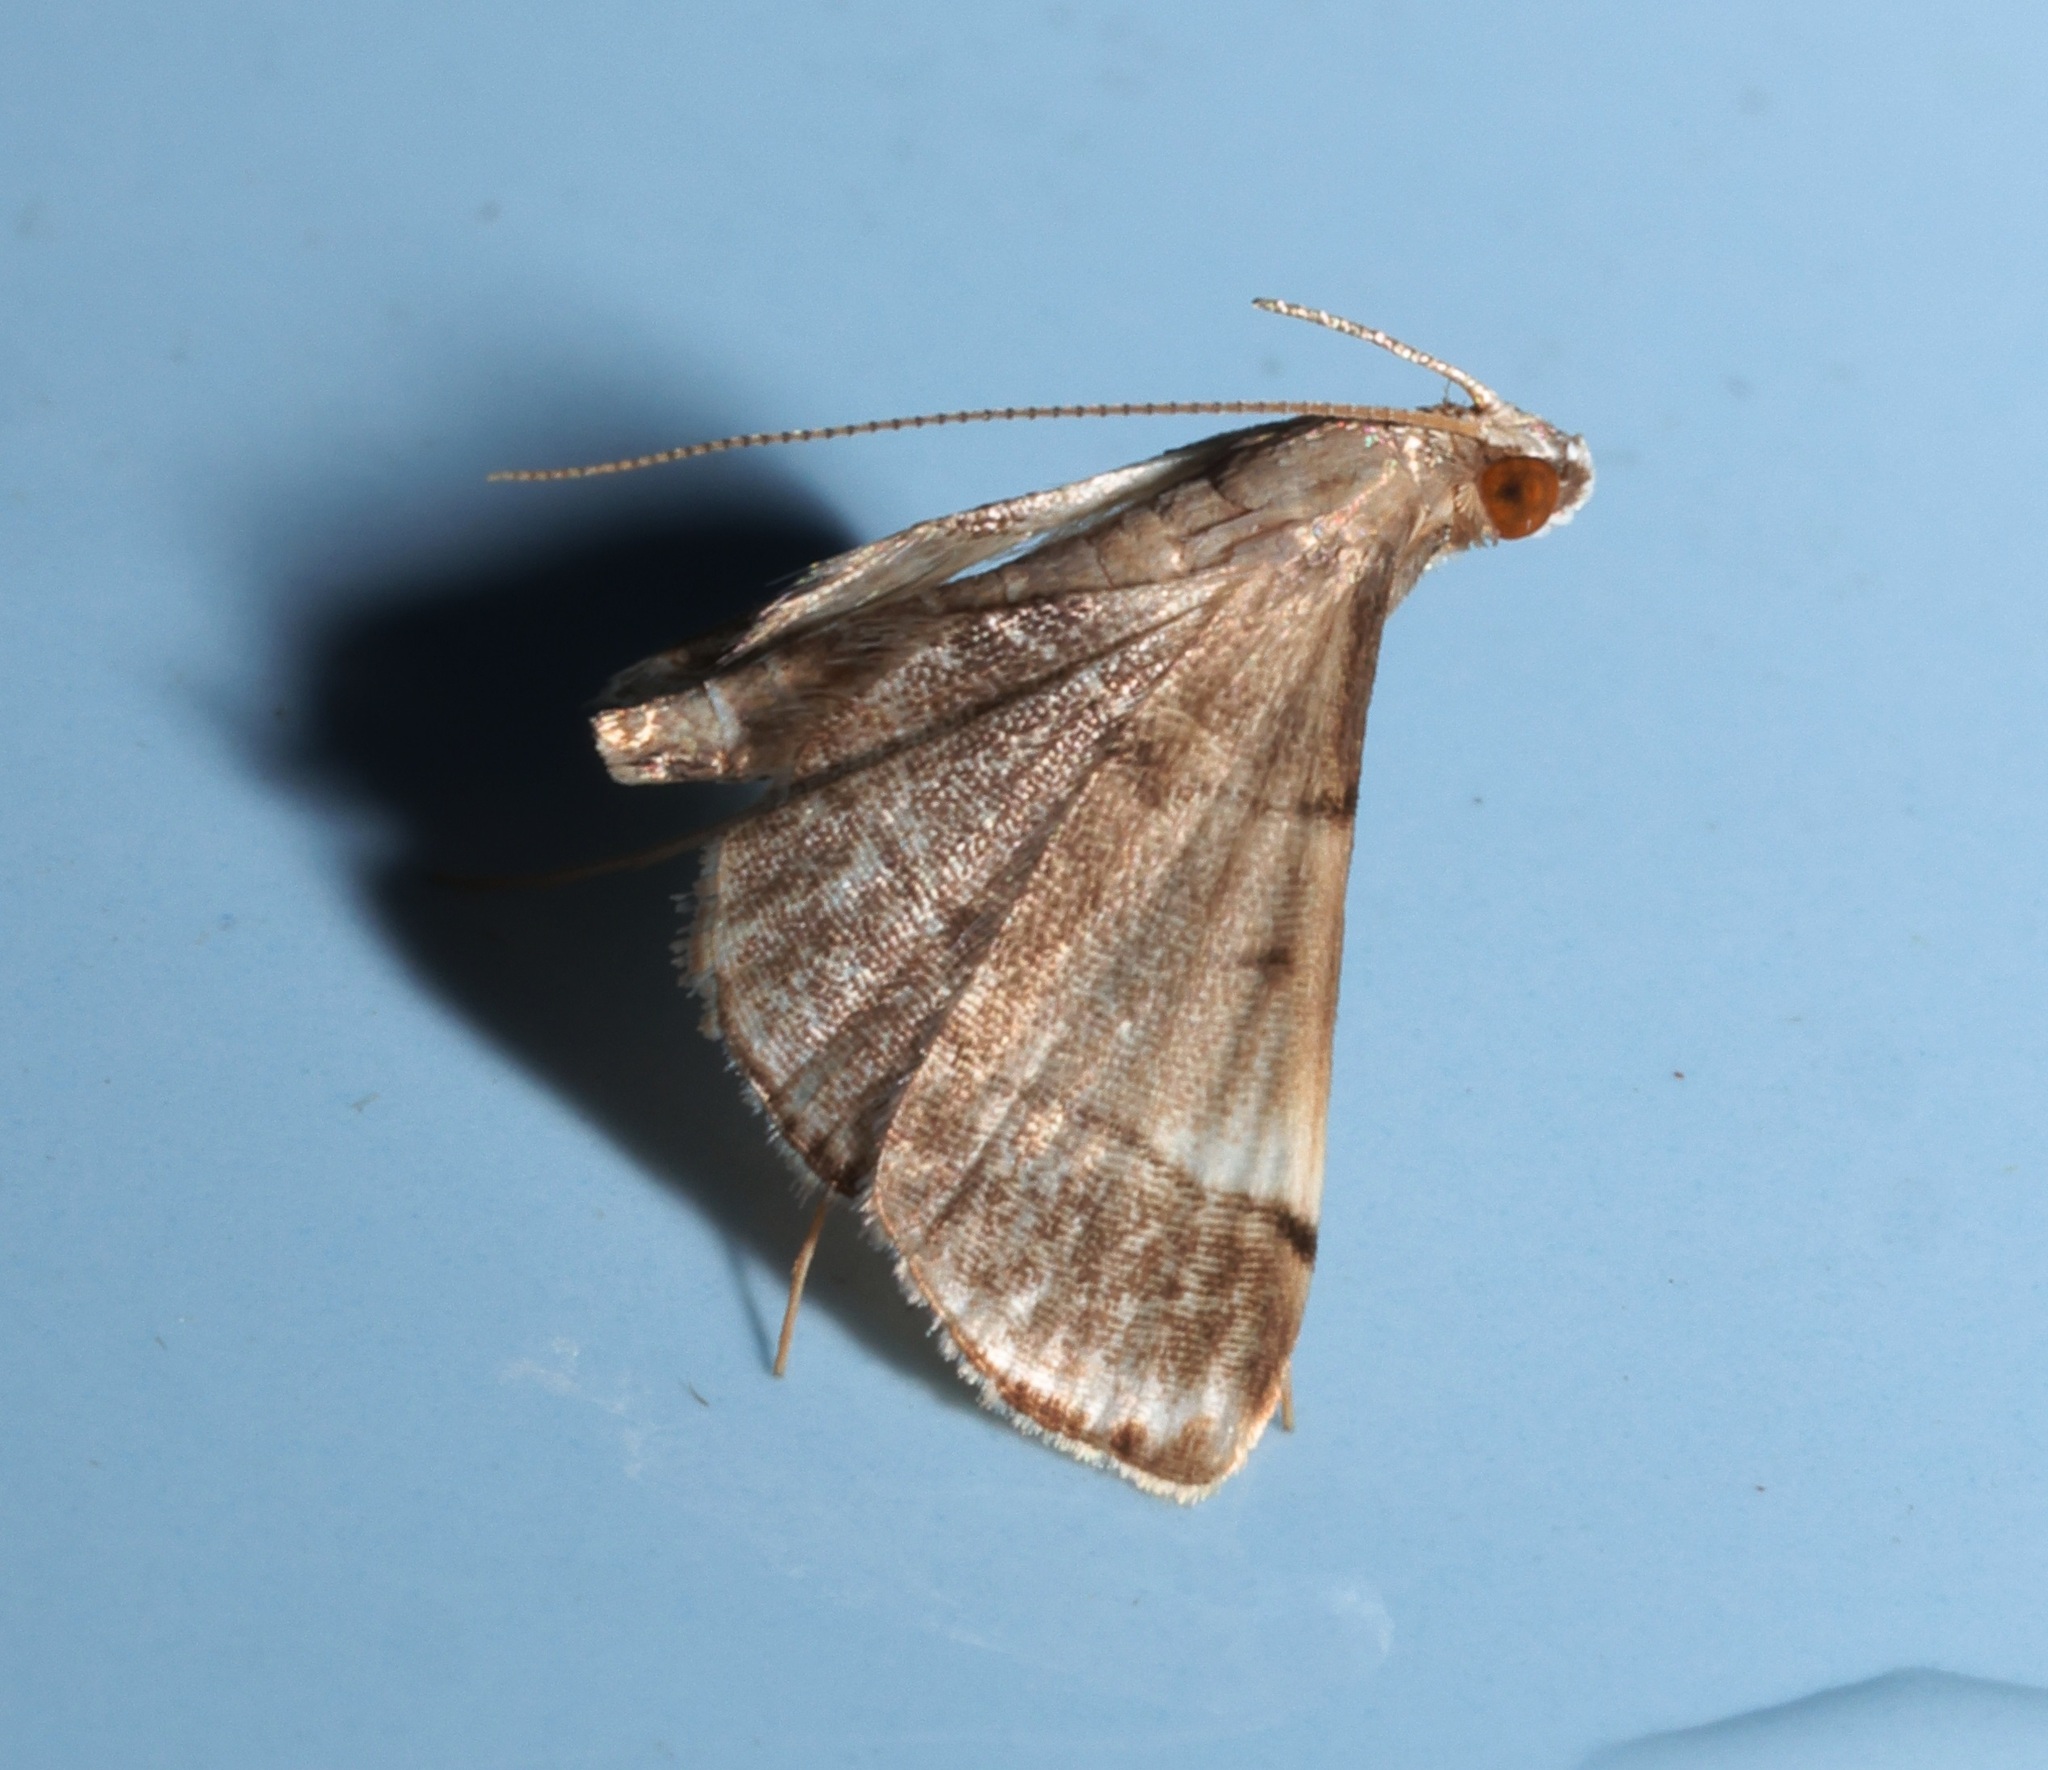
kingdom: Animalia
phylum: Arthropoda
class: Insecta
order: Lepidoptera
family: Crambidae
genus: Cangetta
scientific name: Cangetta hartoghialis
